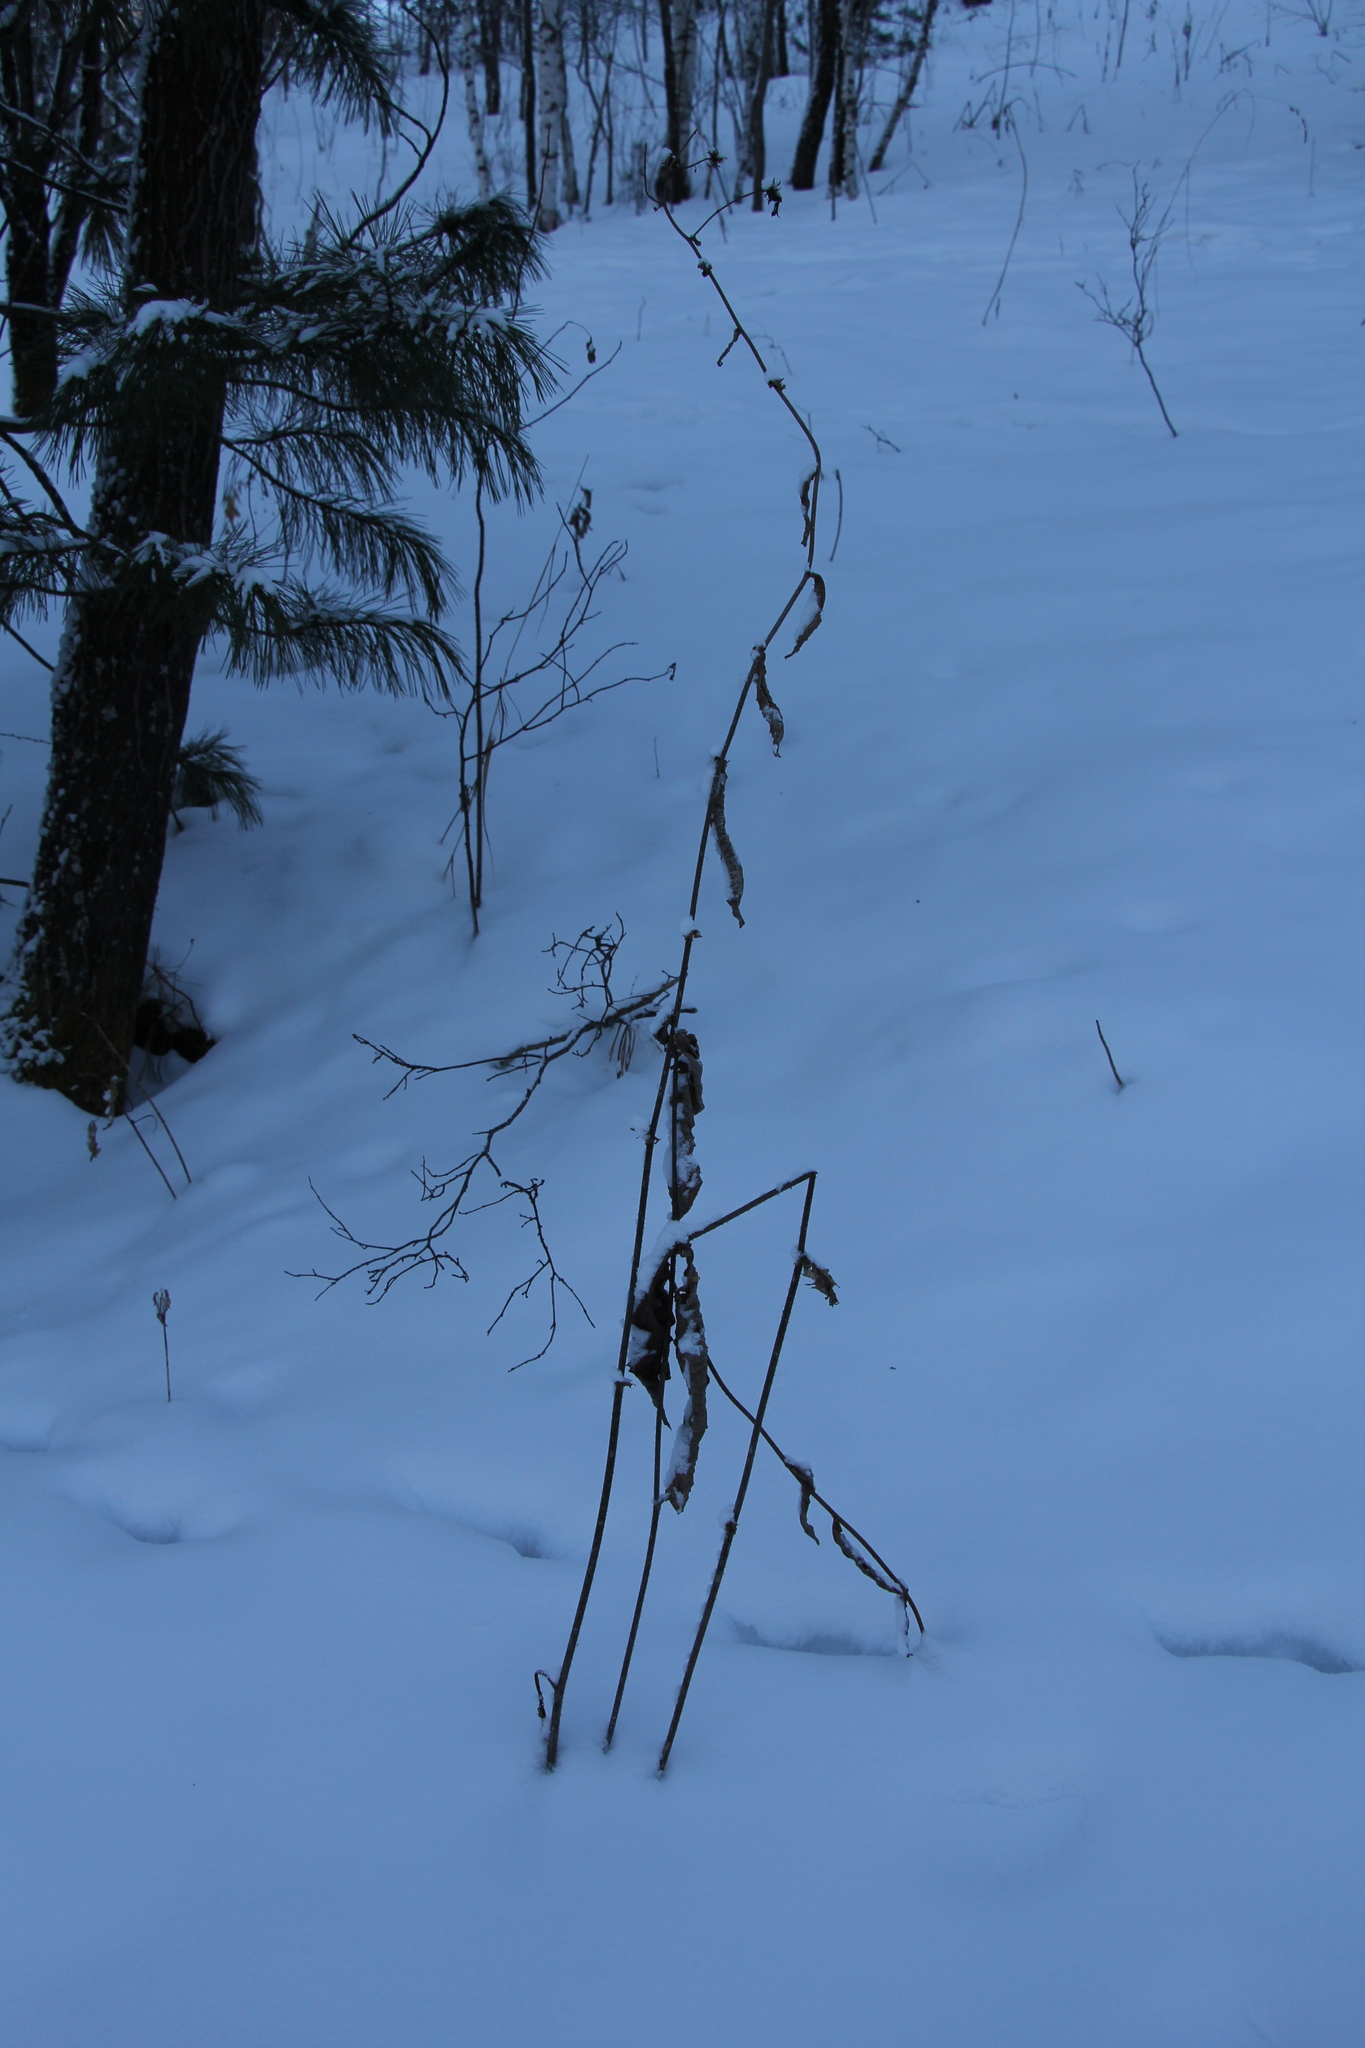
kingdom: Plantae
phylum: Tracheophyta
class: Magnoliopsida
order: Asterales
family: Asteraceae
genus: Crepis
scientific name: Crepis sibirica
